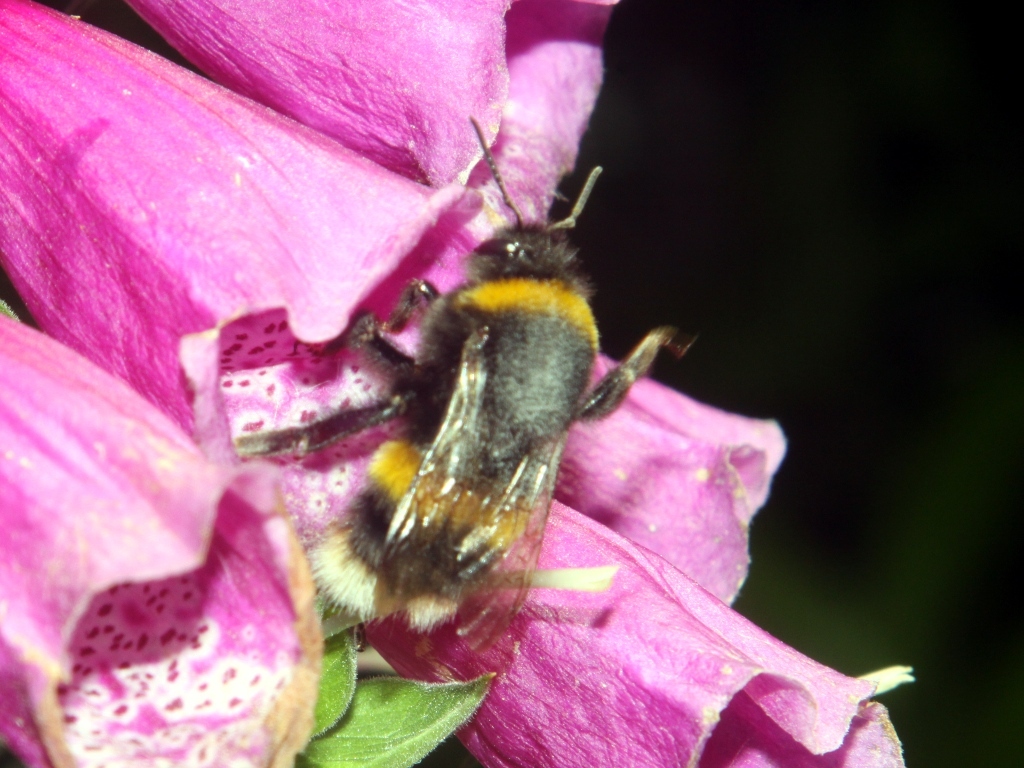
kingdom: Animalia
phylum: Arthropoda
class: Insecta
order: Hymenoptera
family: Apidae
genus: Bombus
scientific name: Bombus terrestris
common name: Buff-tailed bumblebee
